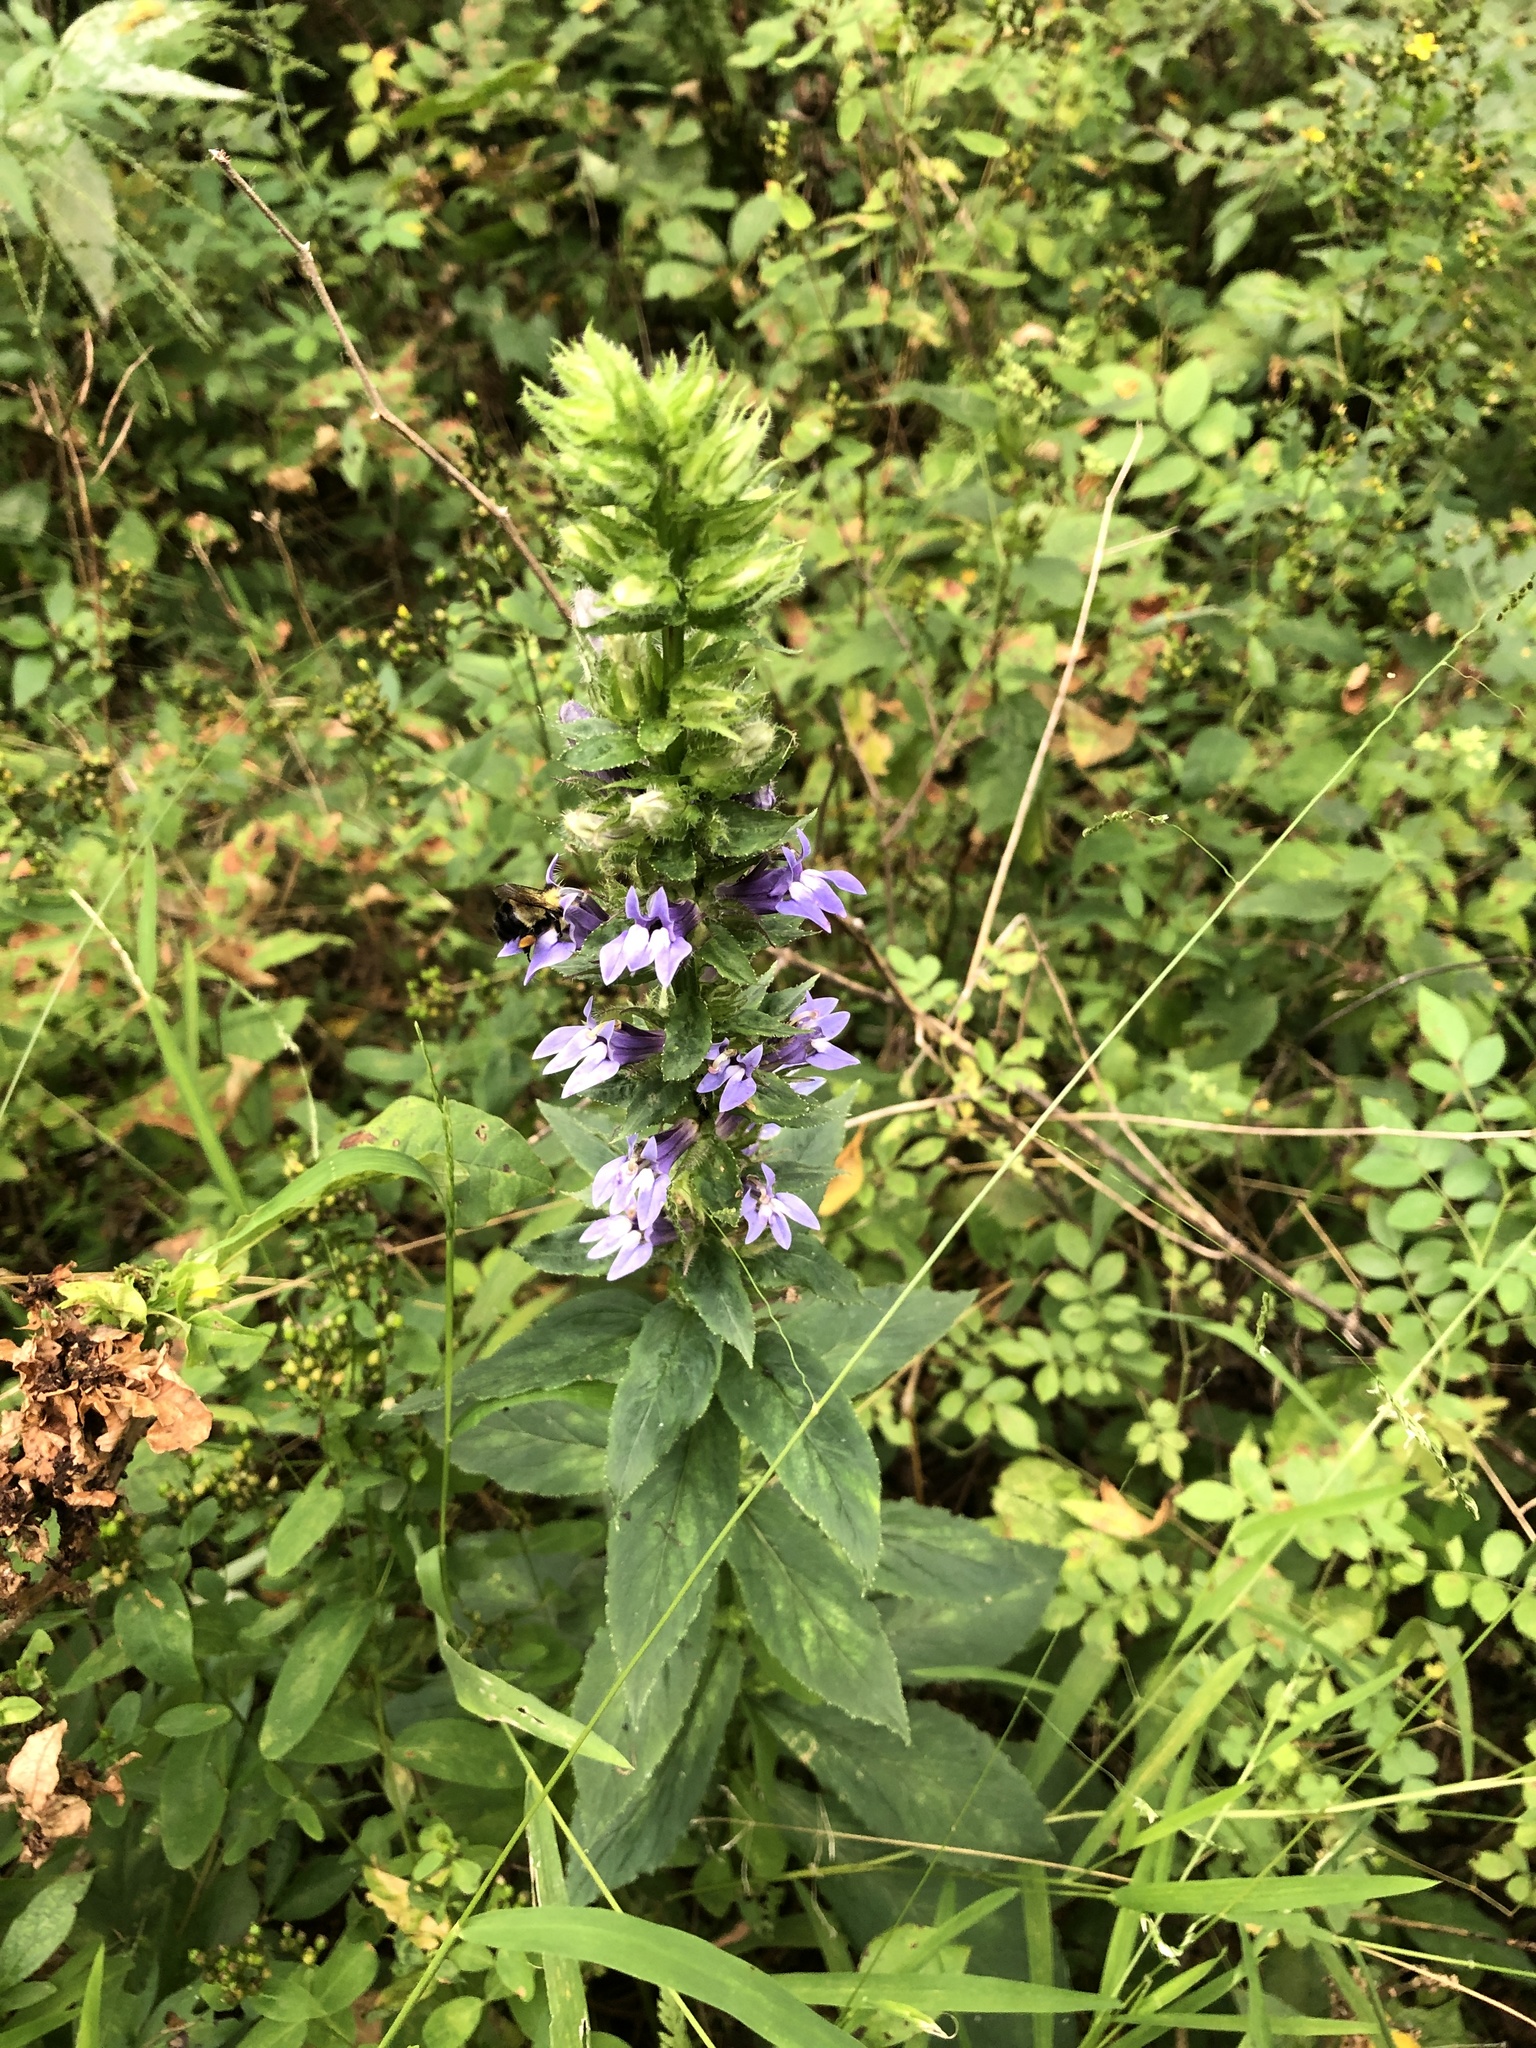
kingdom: Plantae
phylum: Tracheophyta
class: Magnoliopsida
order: Asterales
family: Campanulaceae
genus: Lobelia
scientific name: Lobelia siphilitica
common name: Great lobelia
